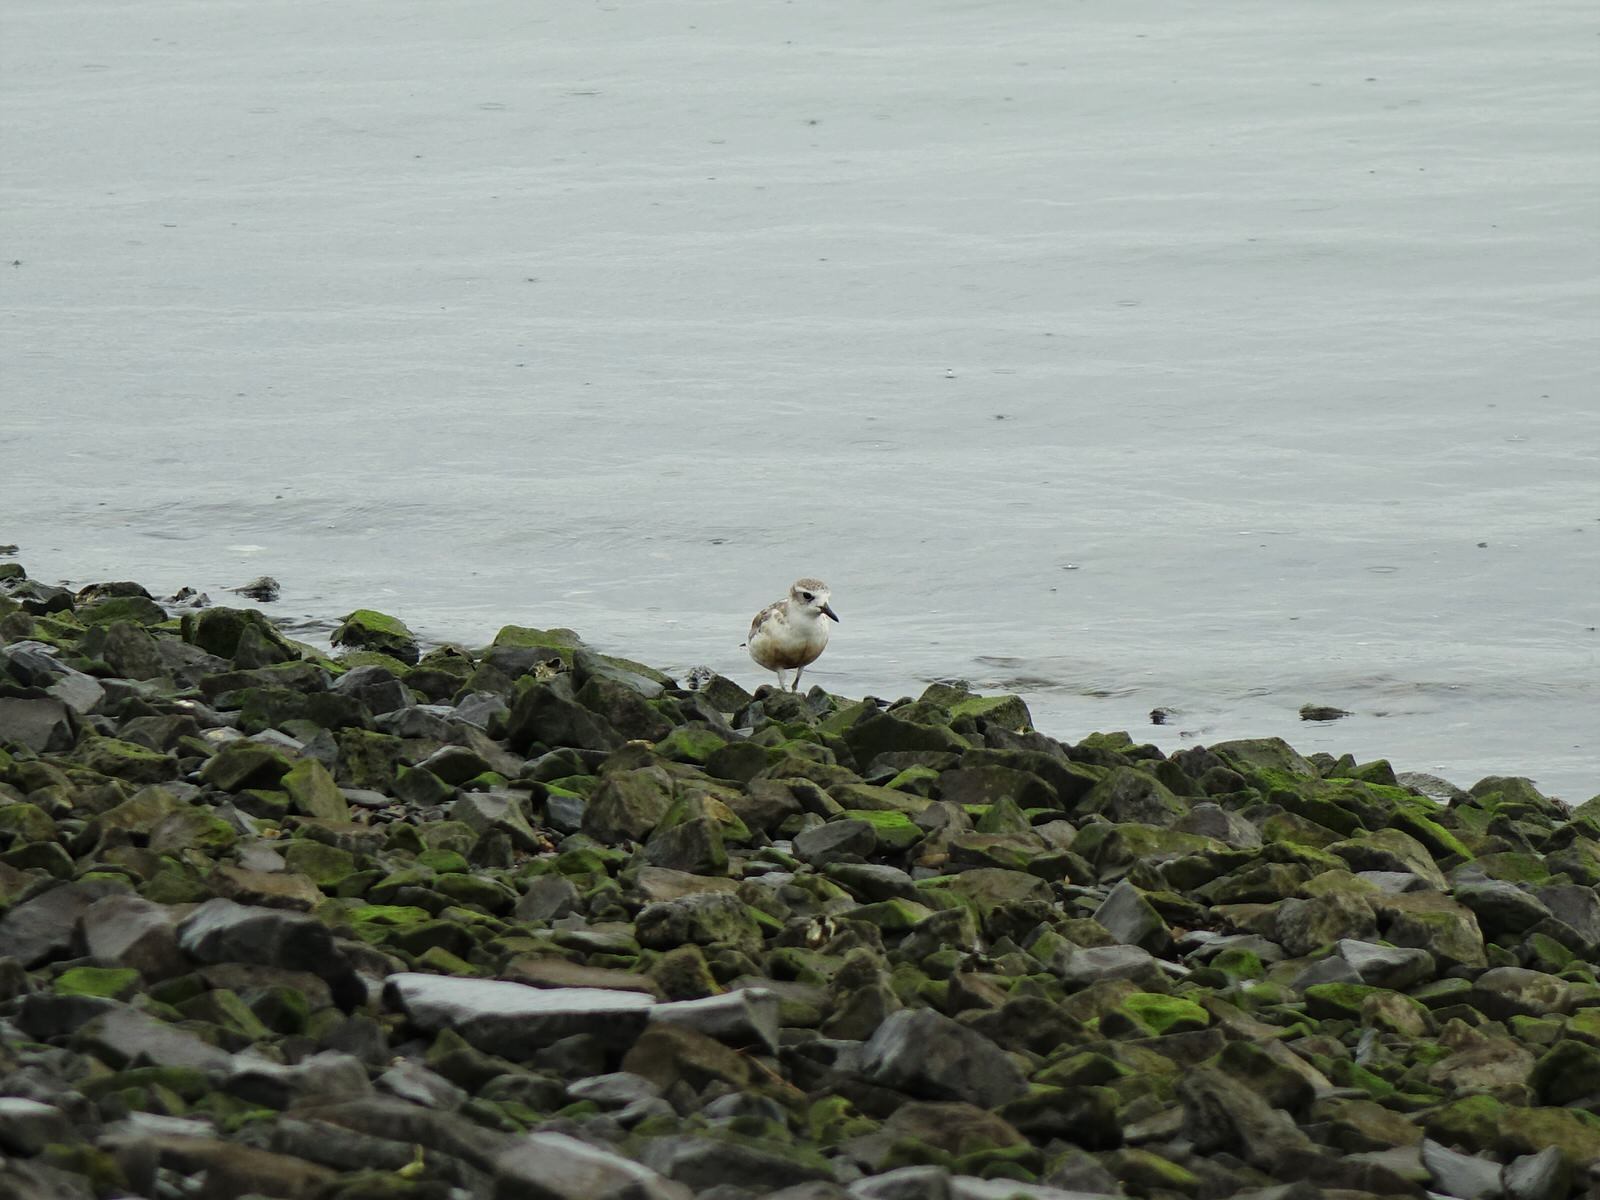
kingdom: Animalia
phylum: Chordata
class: Aves
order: Charadriiformes
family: Charadriidae
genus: Anarhynchus
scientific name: Anarhynchus
